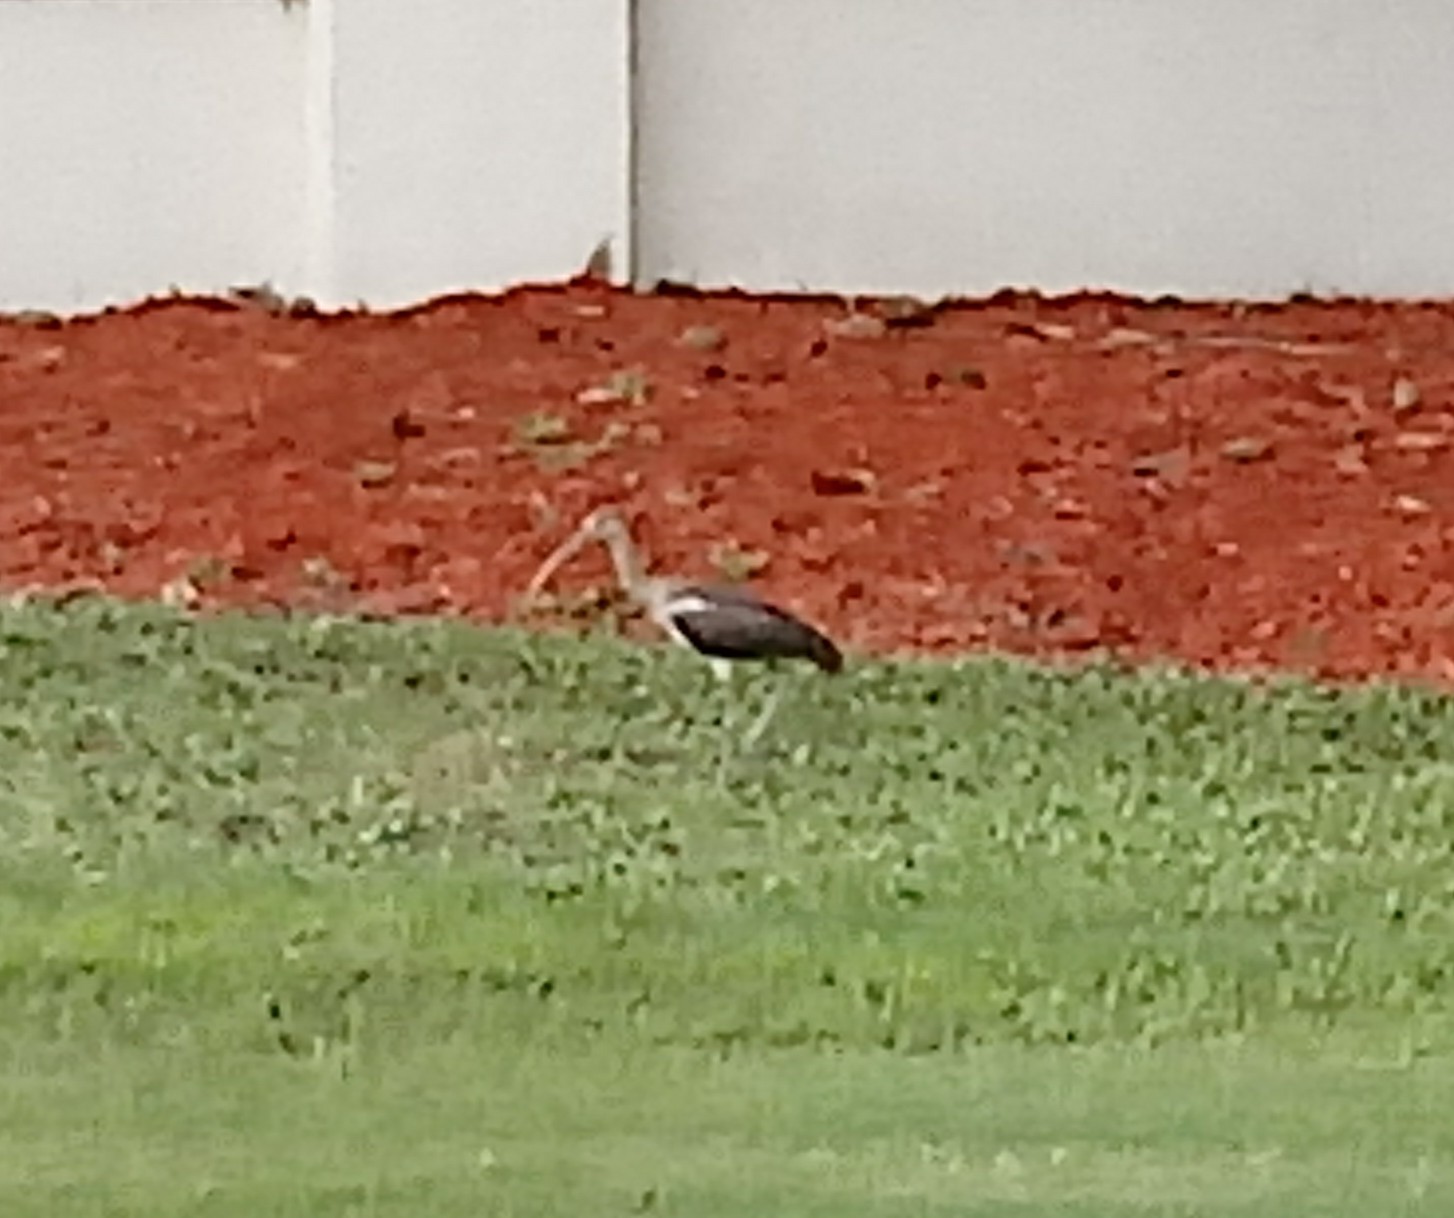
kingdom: Animalia
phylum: Chordata
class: Aves
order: Pelecaniformes
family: Threskiornithidae
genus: Eudocimus
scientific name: Eudocimus albus
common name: White ibis
